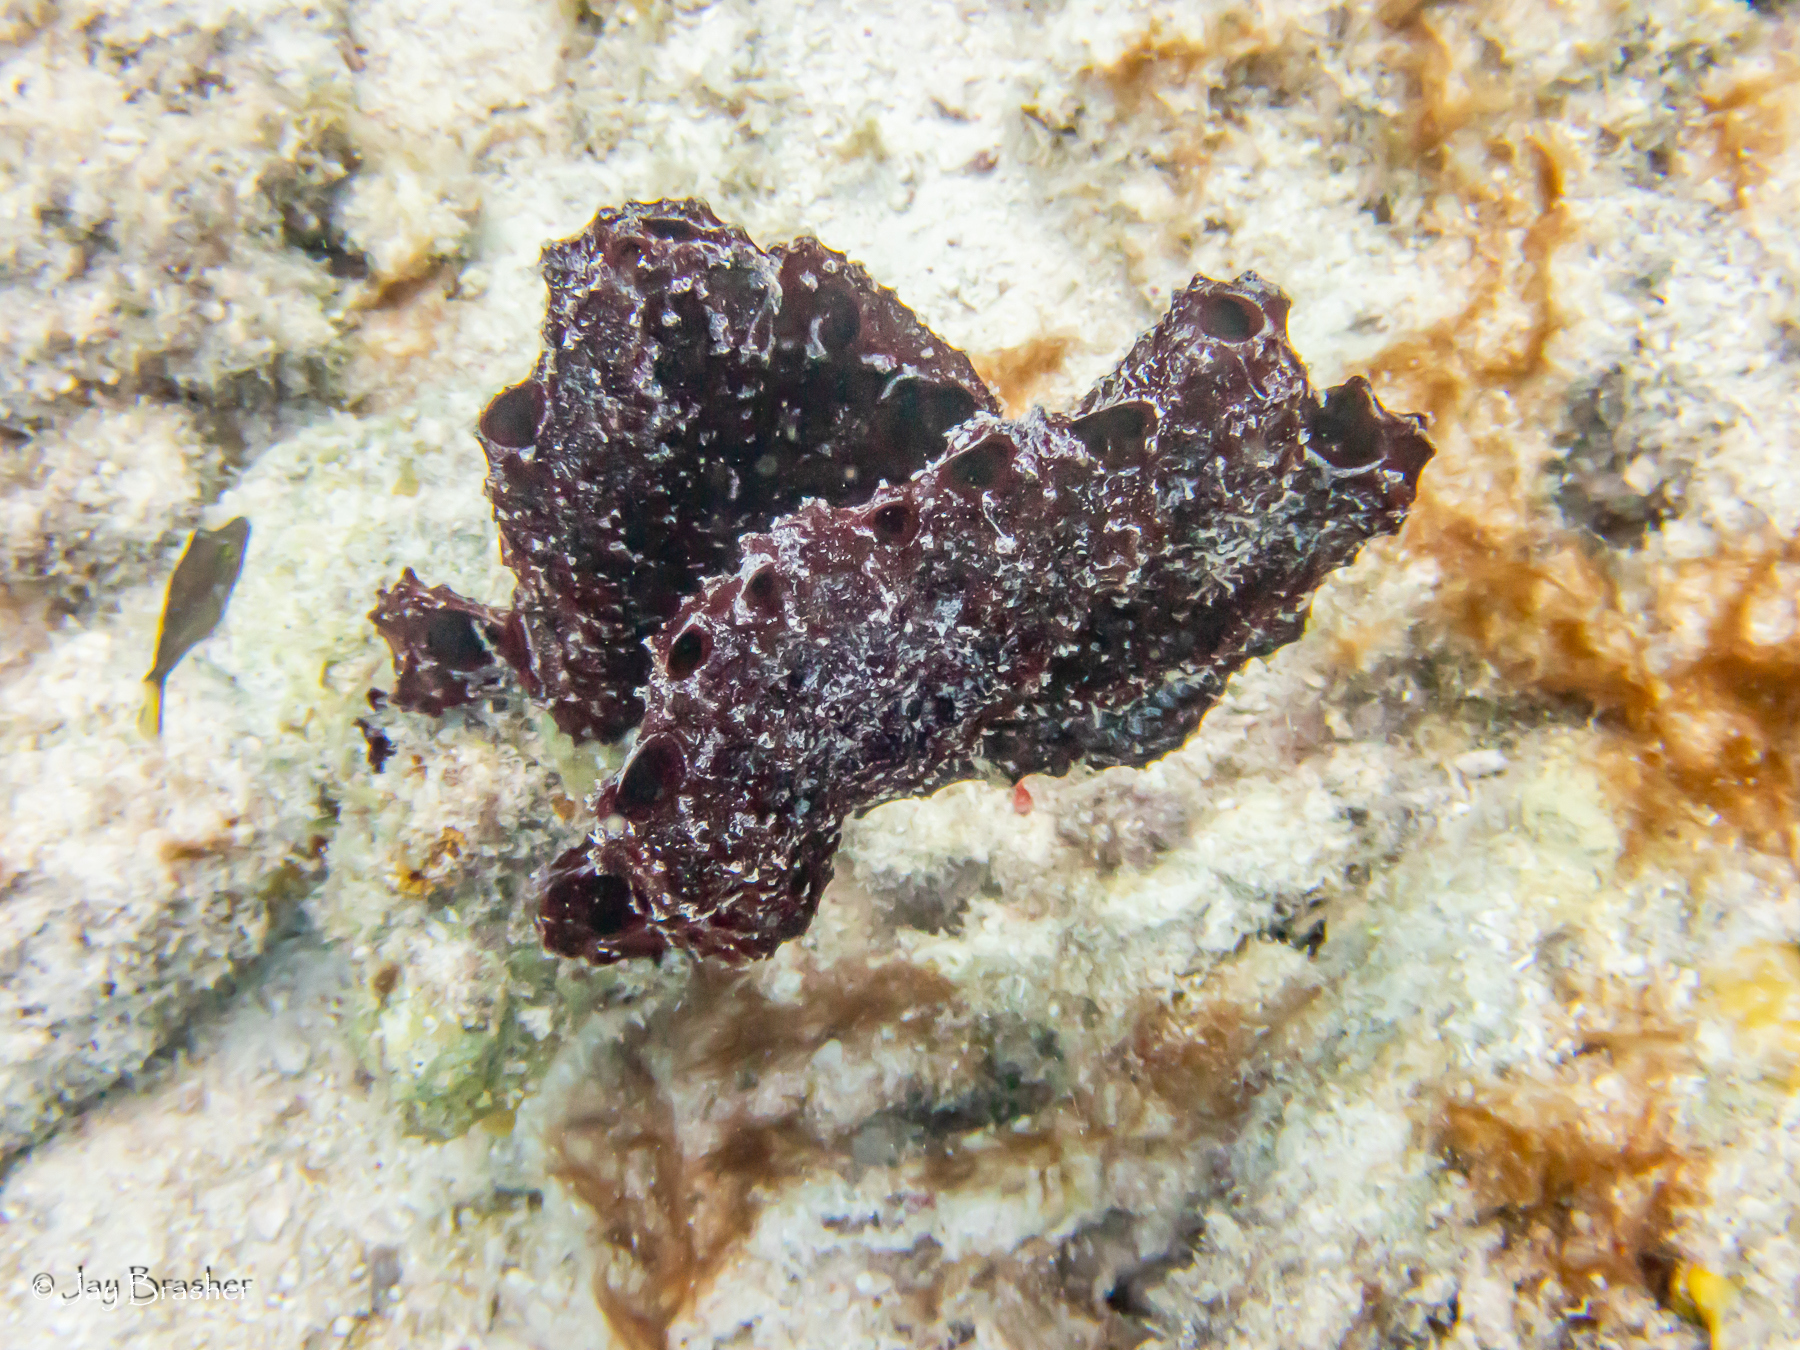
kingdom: Animalia
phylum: Porifera
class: Demospongiae
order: Poecilosclerida
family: Microcionidae
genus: Pandaros
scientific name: Pandaros acanthifolium
